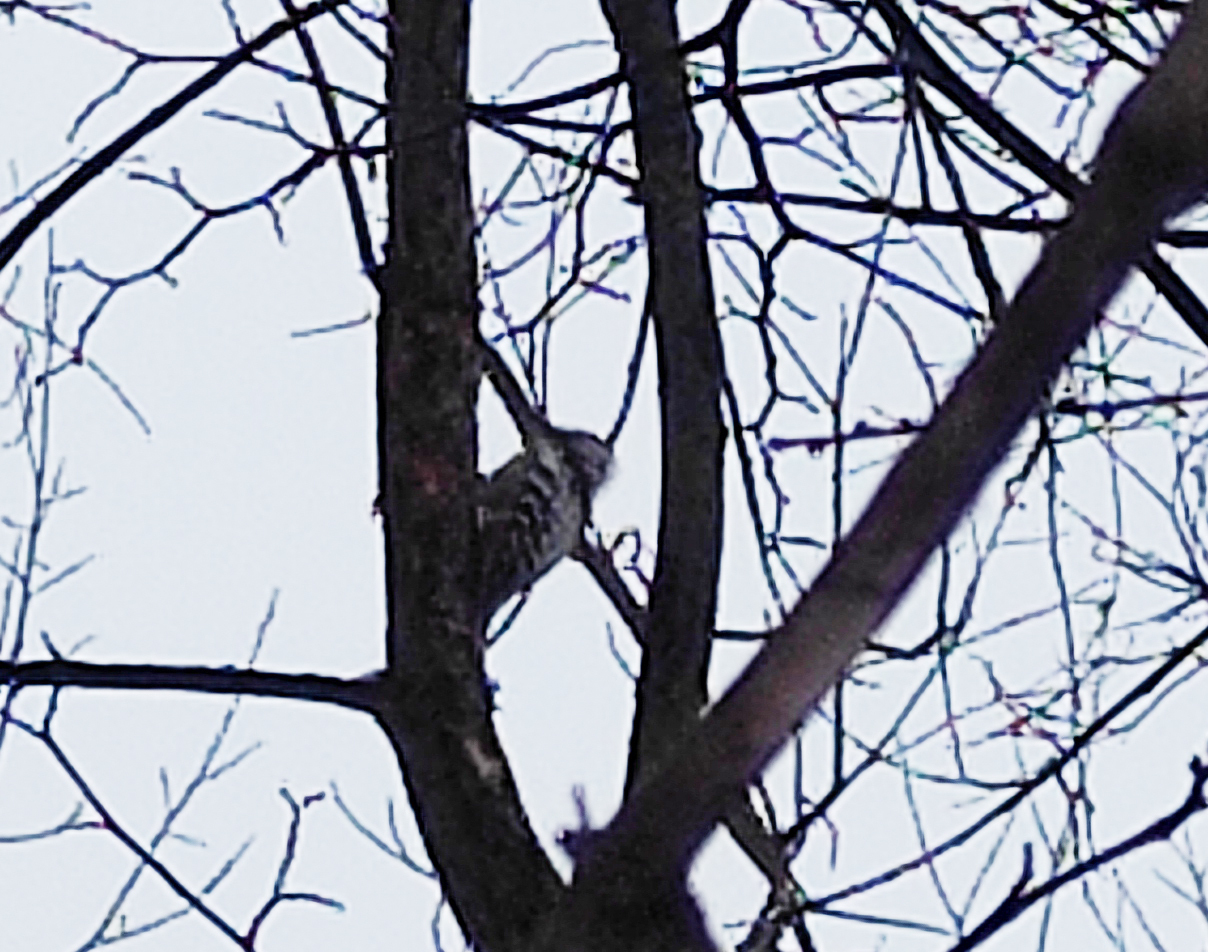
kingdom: Animalia
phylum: Chordata
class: Aves
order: Piciformes
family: Picidae
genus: Dendrocopos
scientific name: Dendrocopos leucotos
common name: White-backed woodpecker
